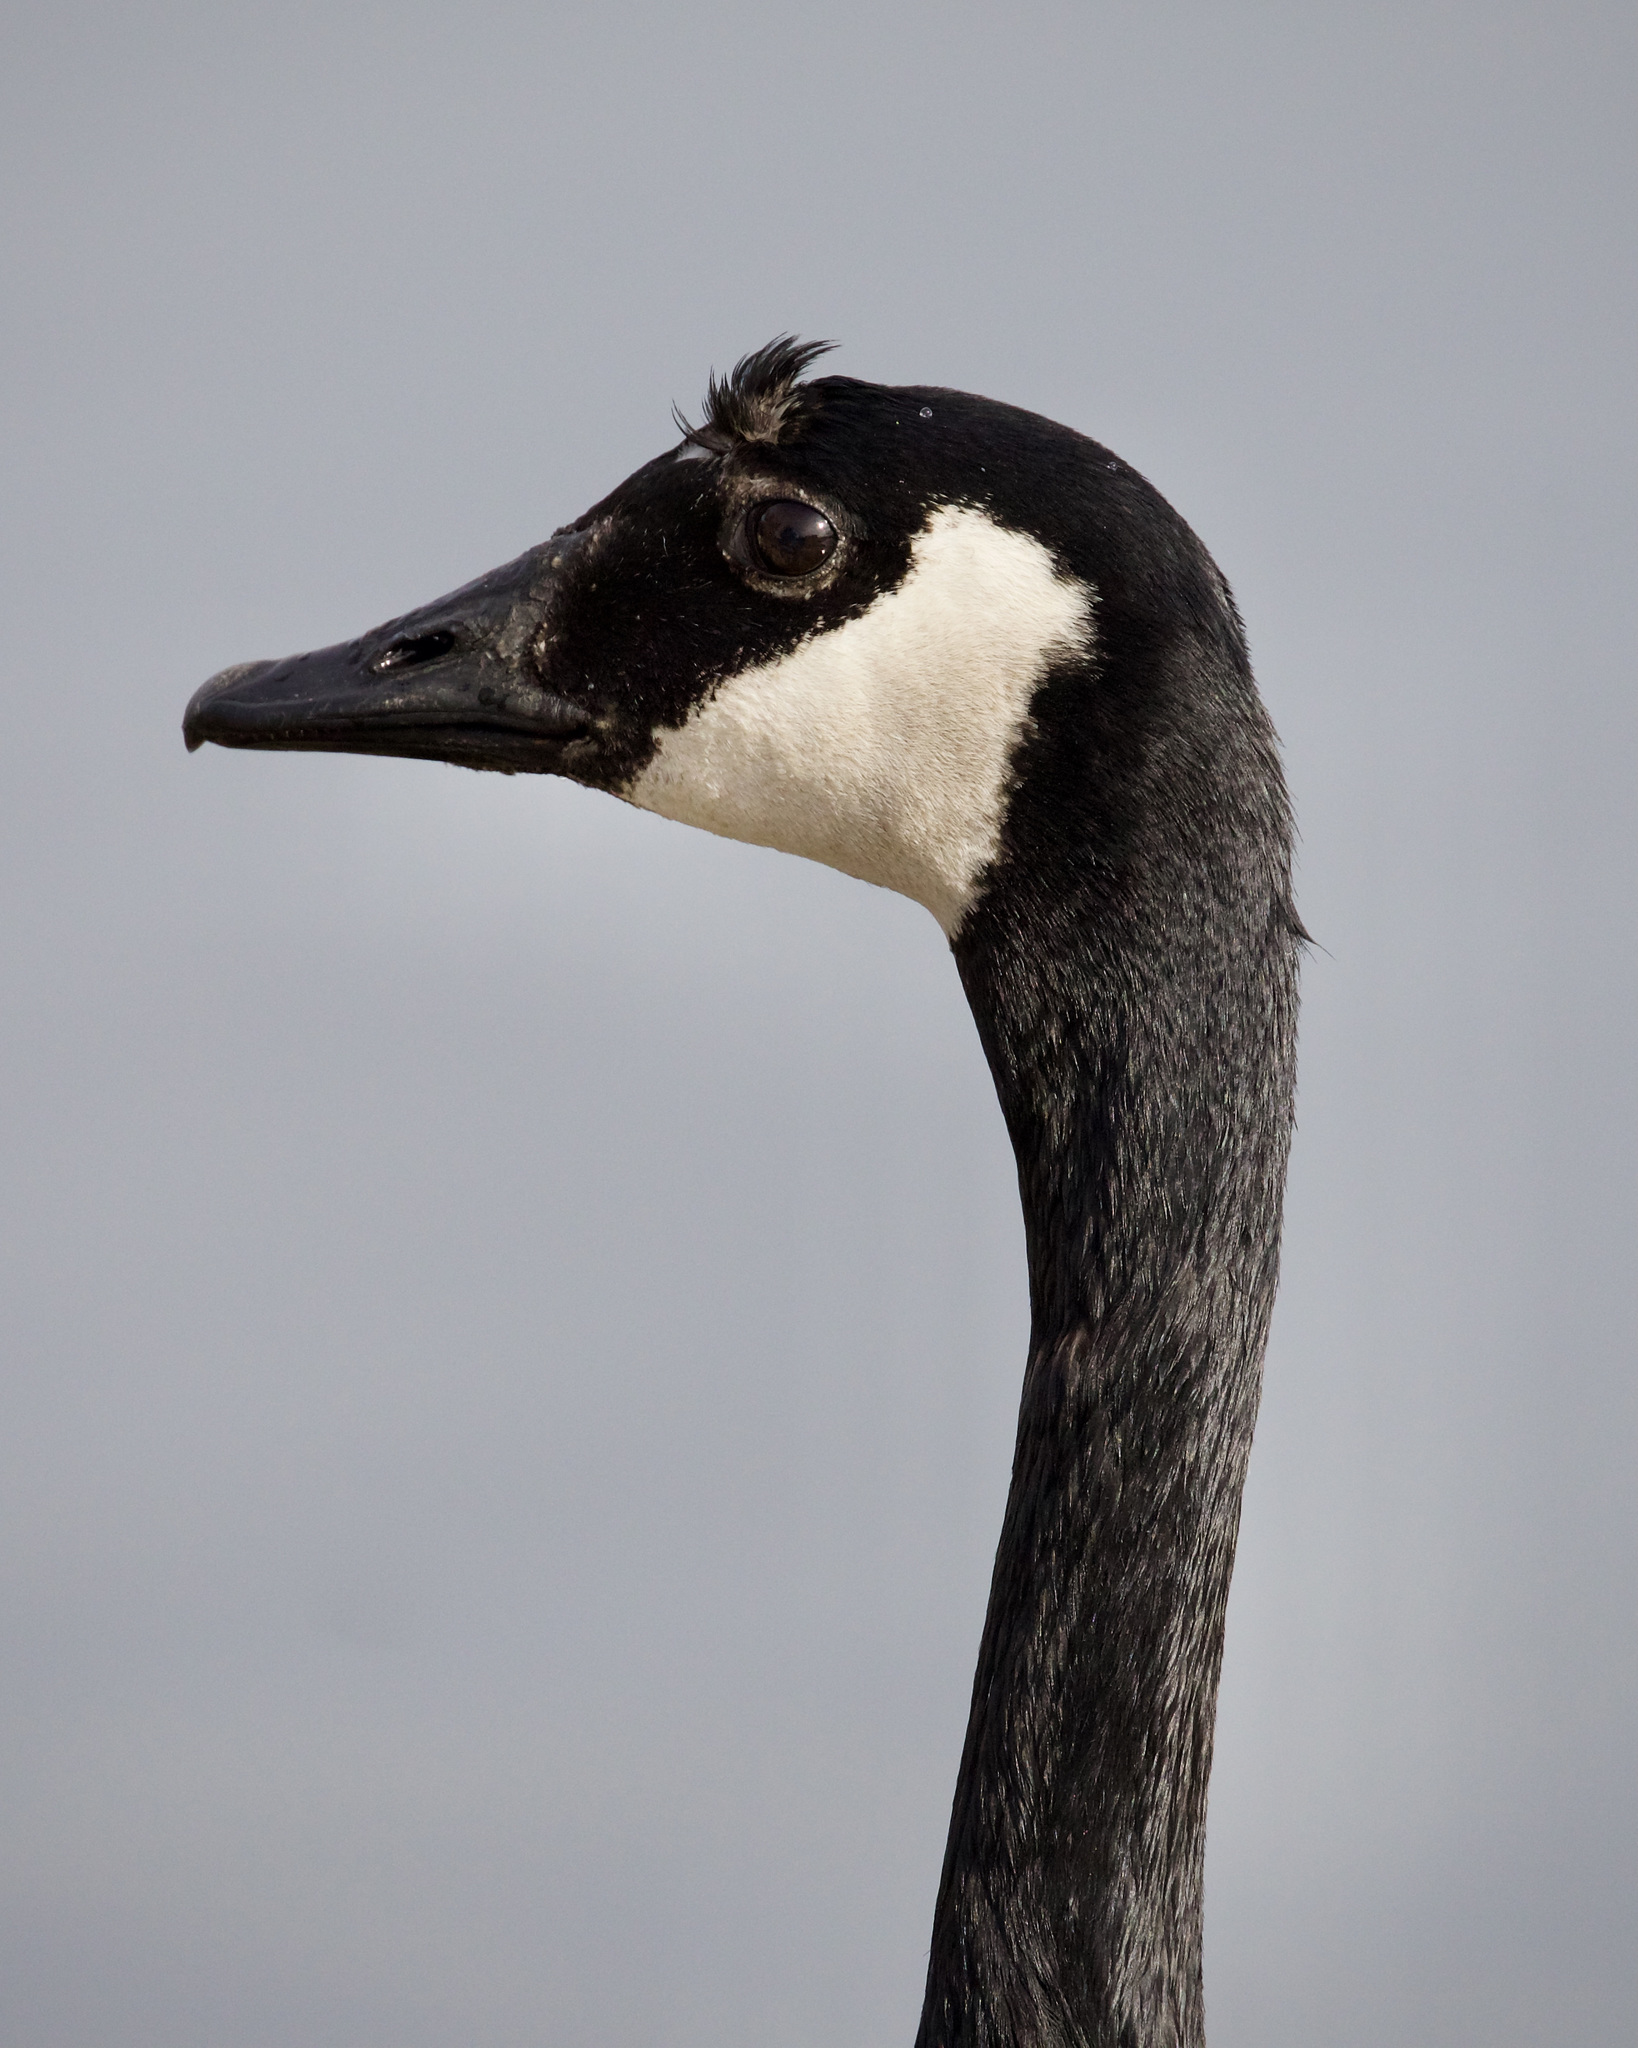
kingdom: Animalia
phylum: Chordata
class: Aves
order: Anseriformes
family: Anatidae
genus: Branta
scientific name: Branta canadensis
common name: Canada goose
